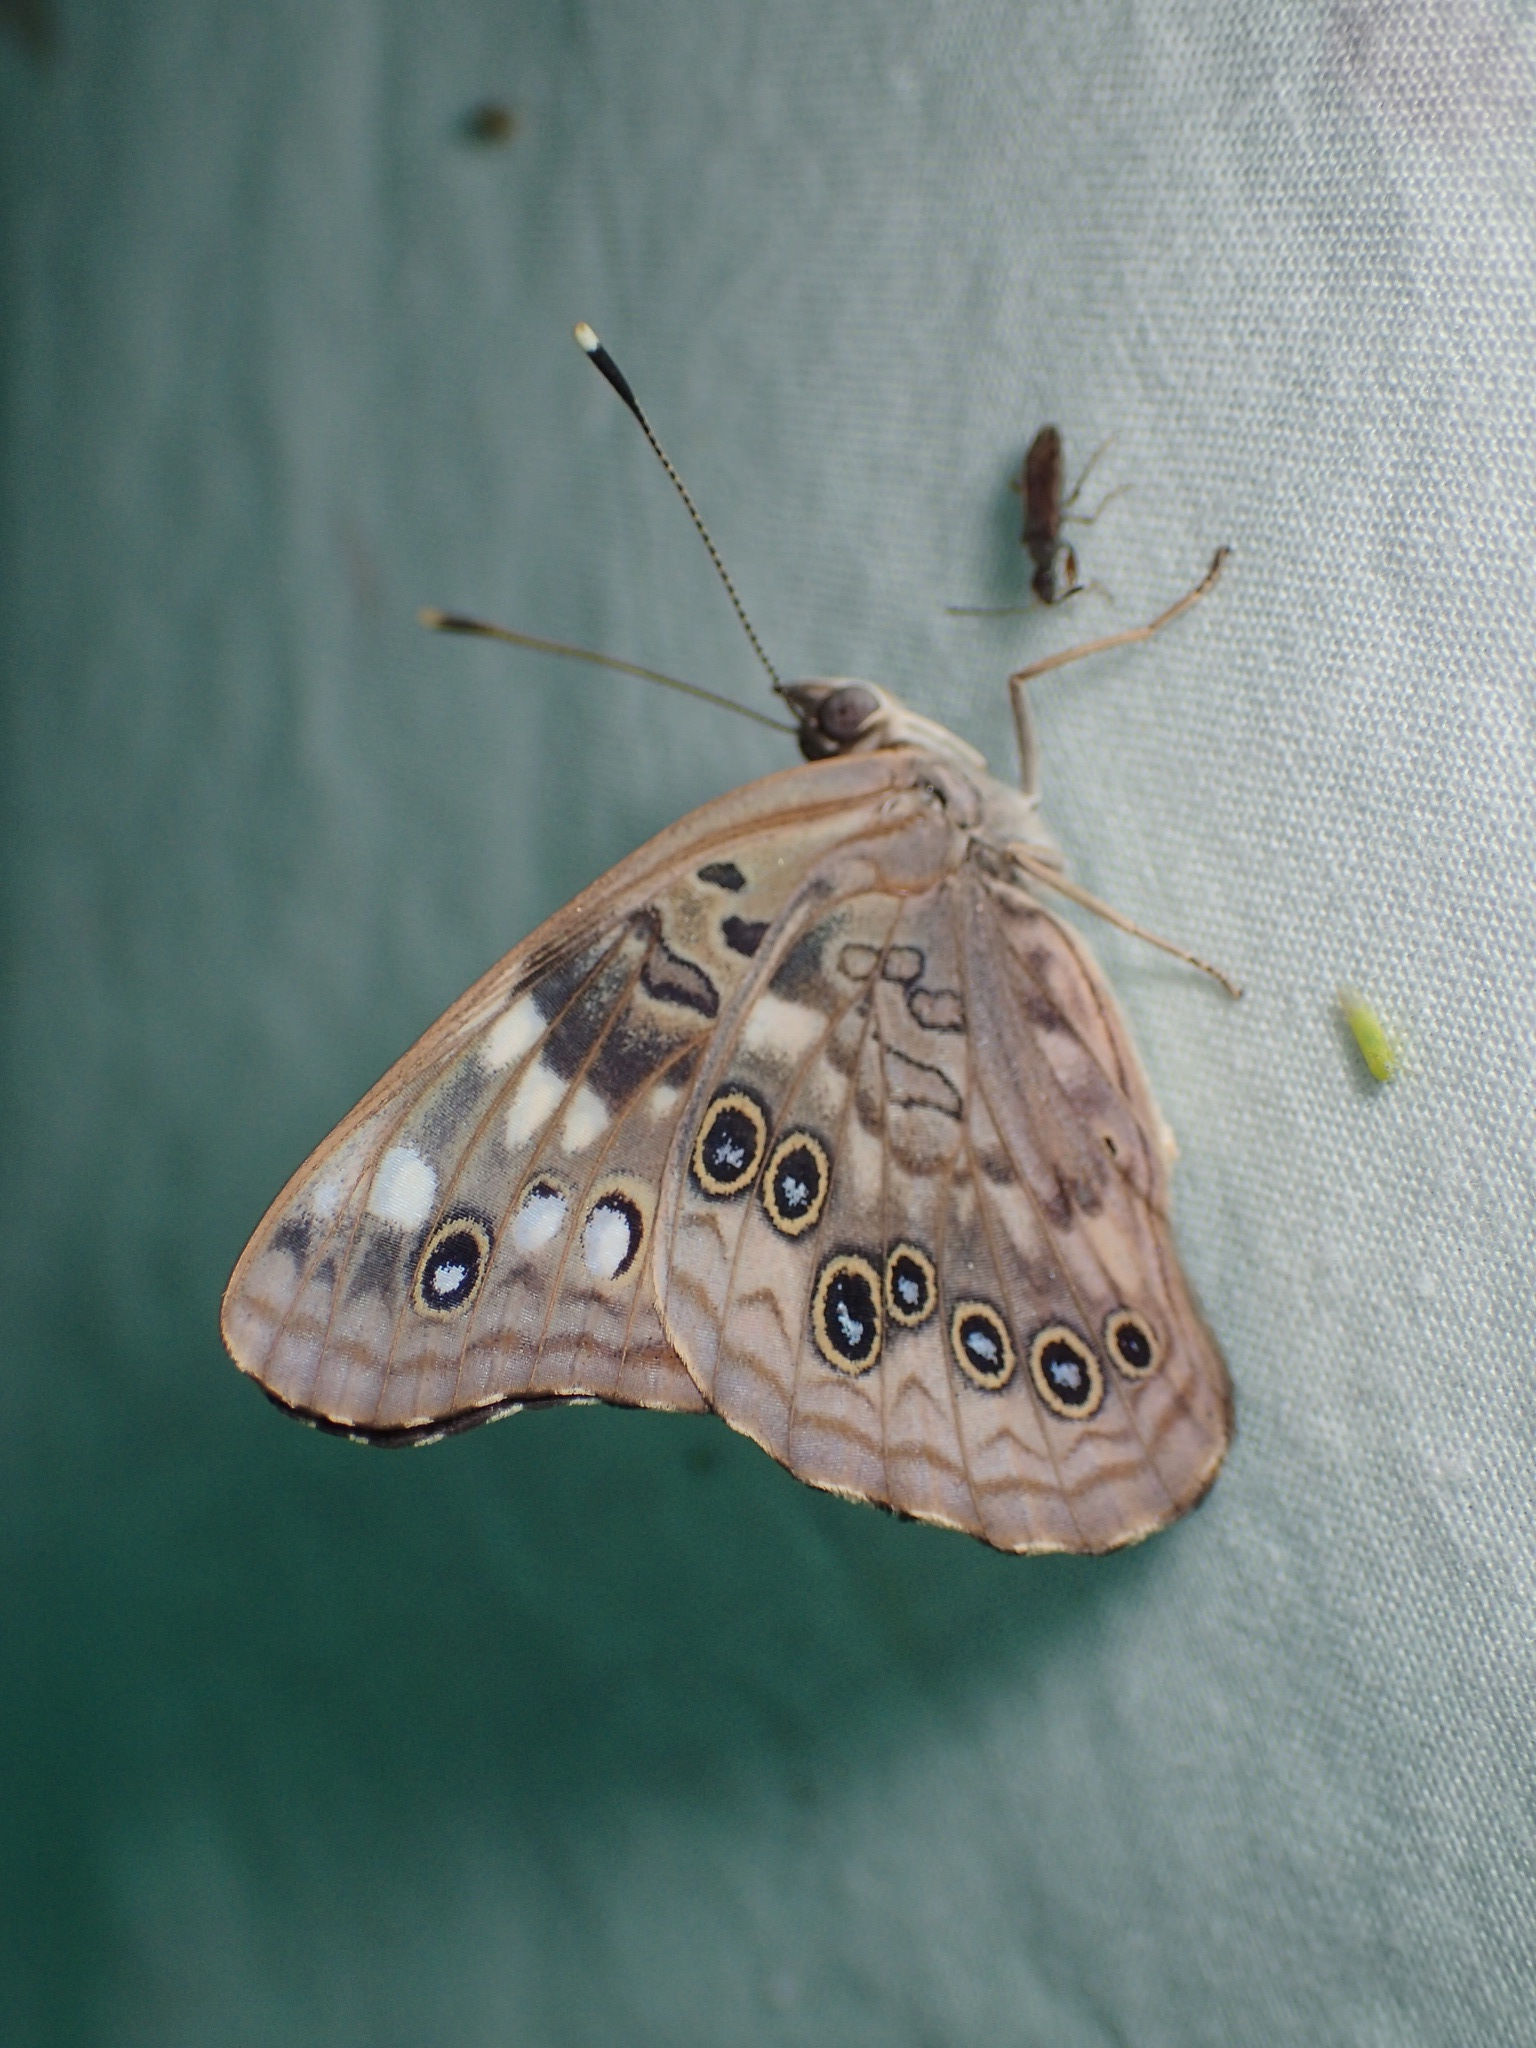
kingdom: Animalia
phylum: Arthropoda
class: Insecta
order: Lepidoptera
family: Nymphalidae
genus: Asterocampa
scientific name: Asterocampa celtis
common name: Hackberry emperor
